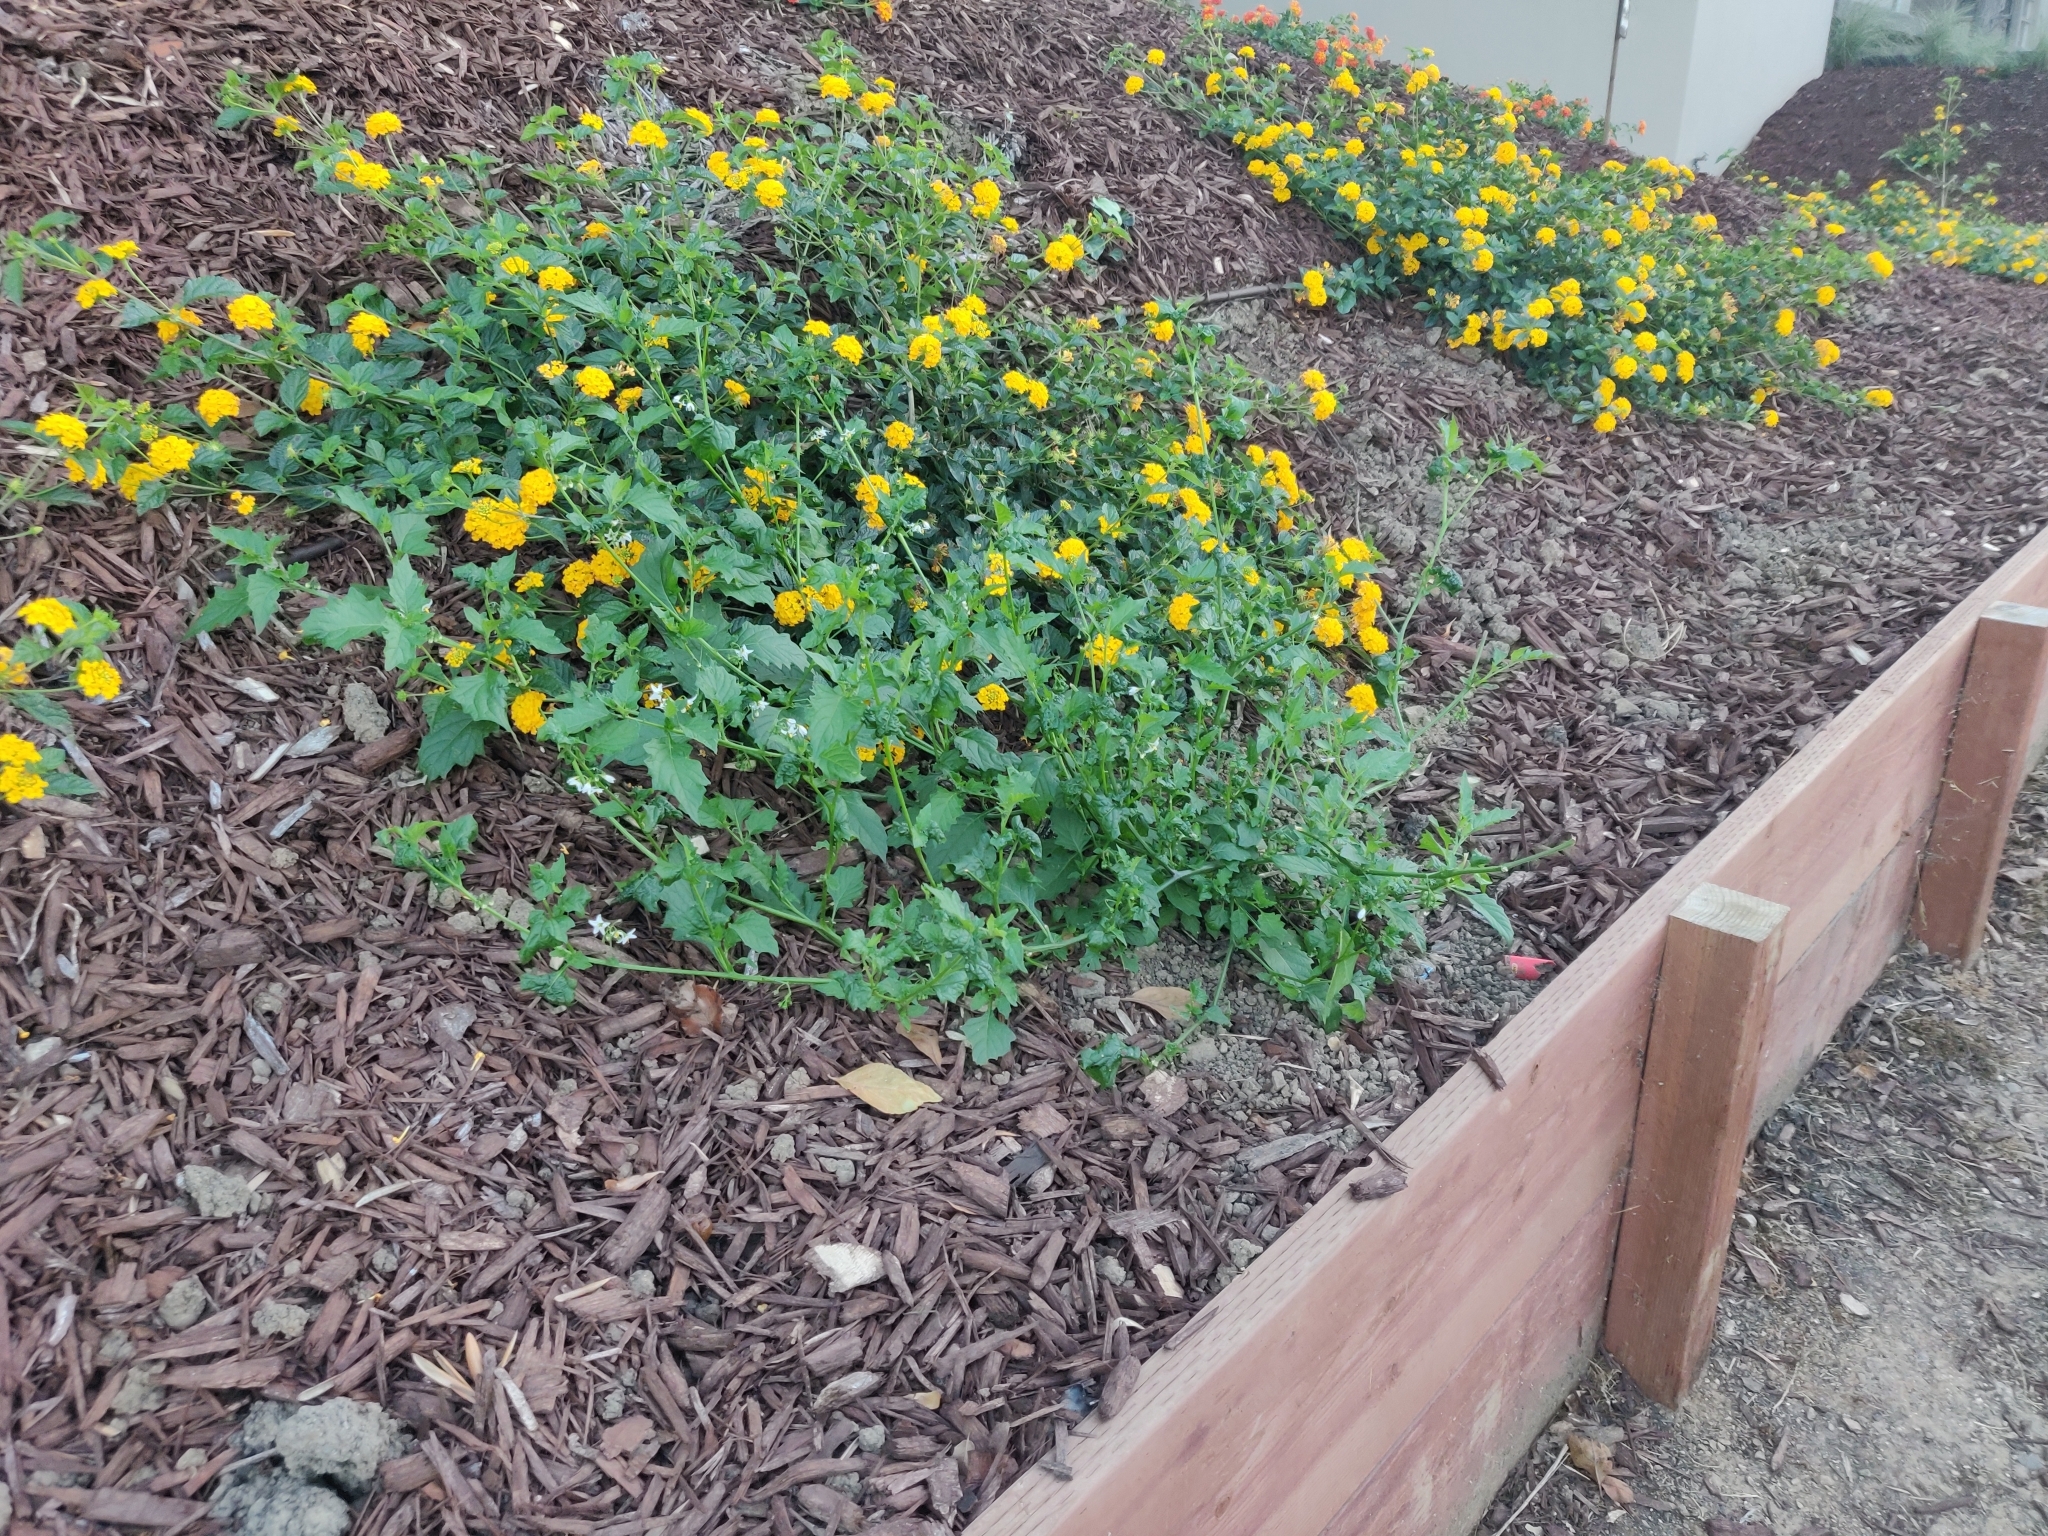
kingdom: Plantae
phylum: Tracheophyta
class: Magnoliopsida
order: Solanales
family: Solanaceae
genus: Solanum
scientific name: Solanum furcatum
